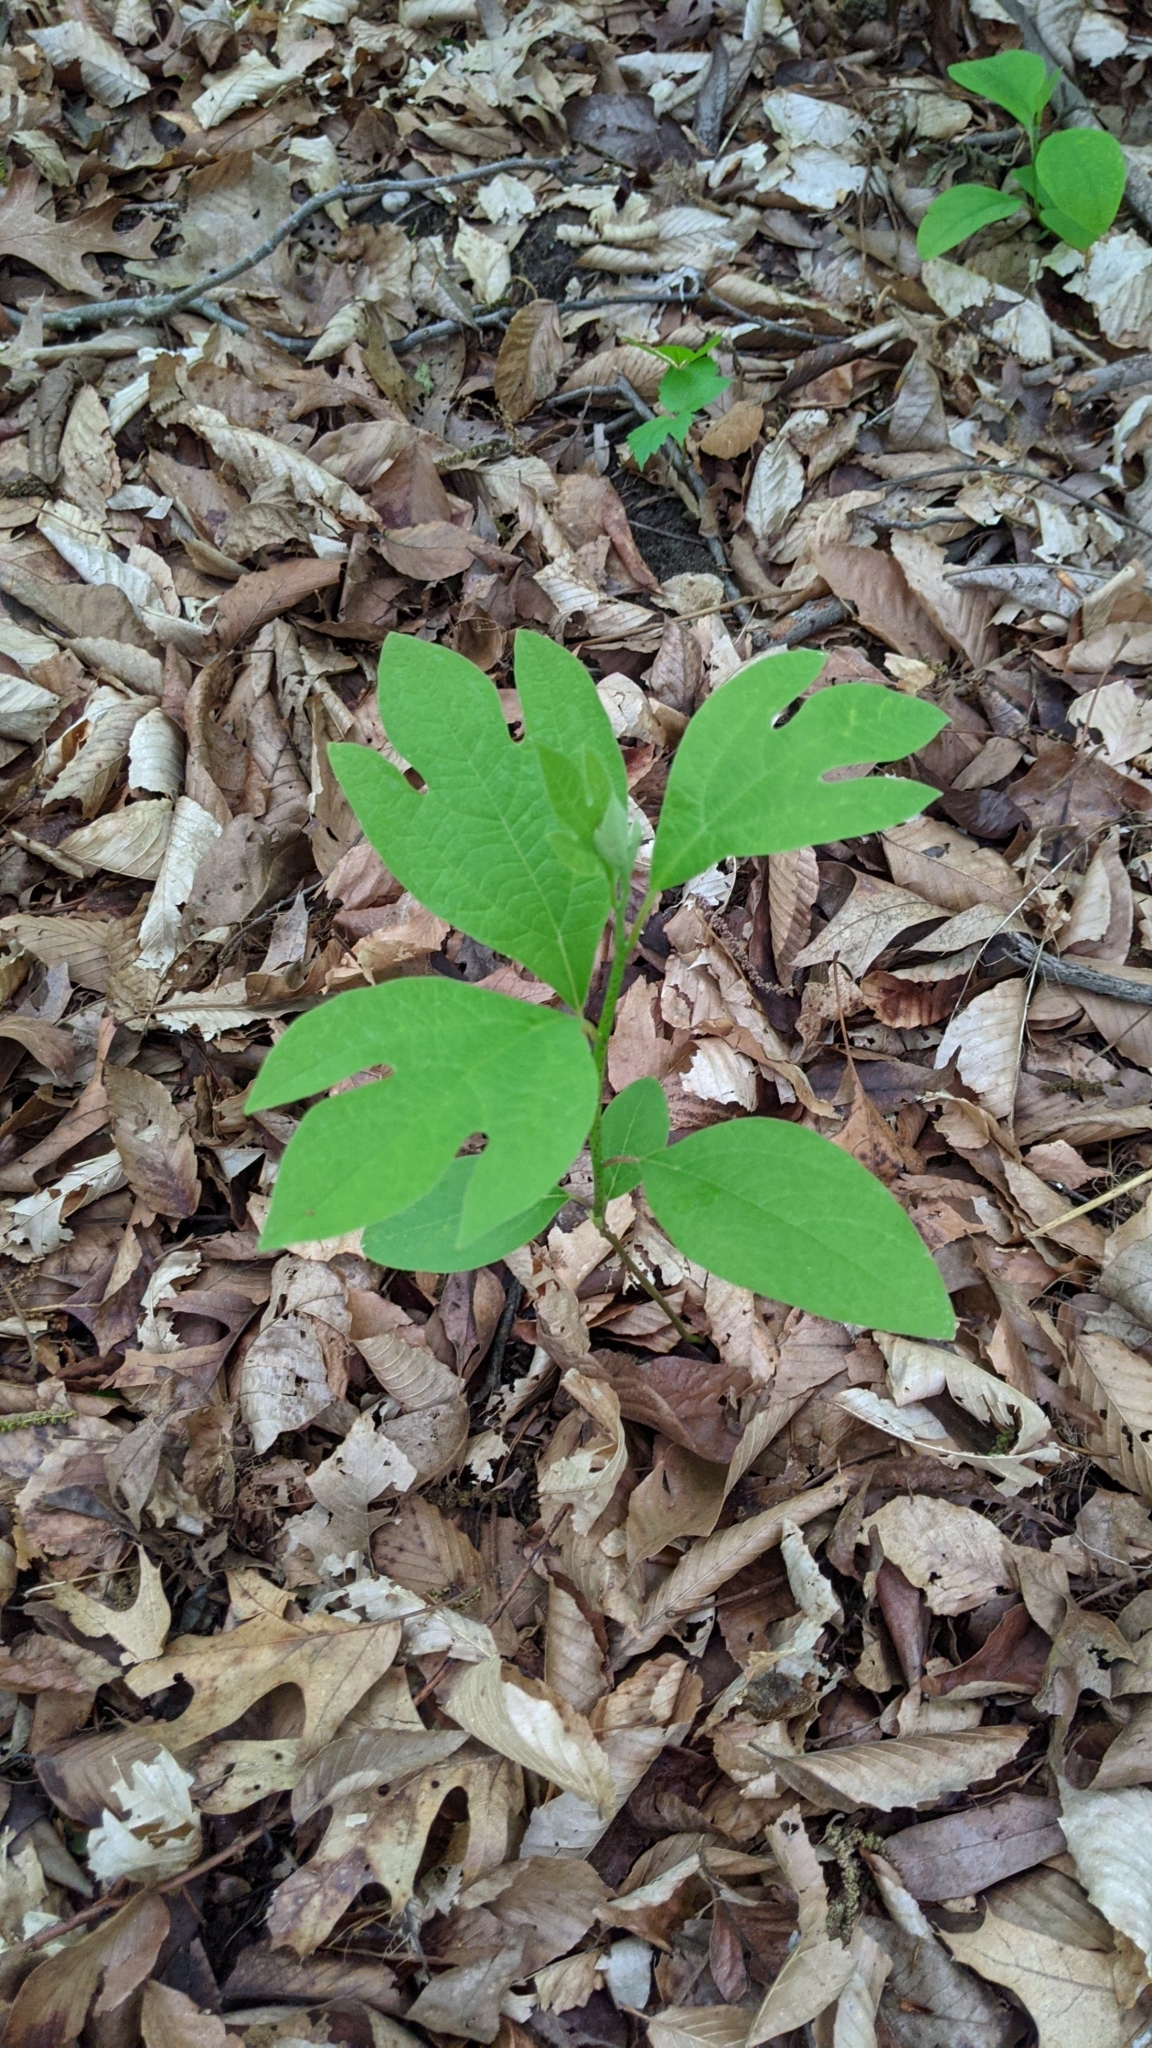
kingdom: Plantae
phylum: Tracheophyta
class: Magnoliopsida
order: Laurales
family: Lauraceae
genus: Sassafras
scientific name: Sassafras albidum
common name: Sassafras
